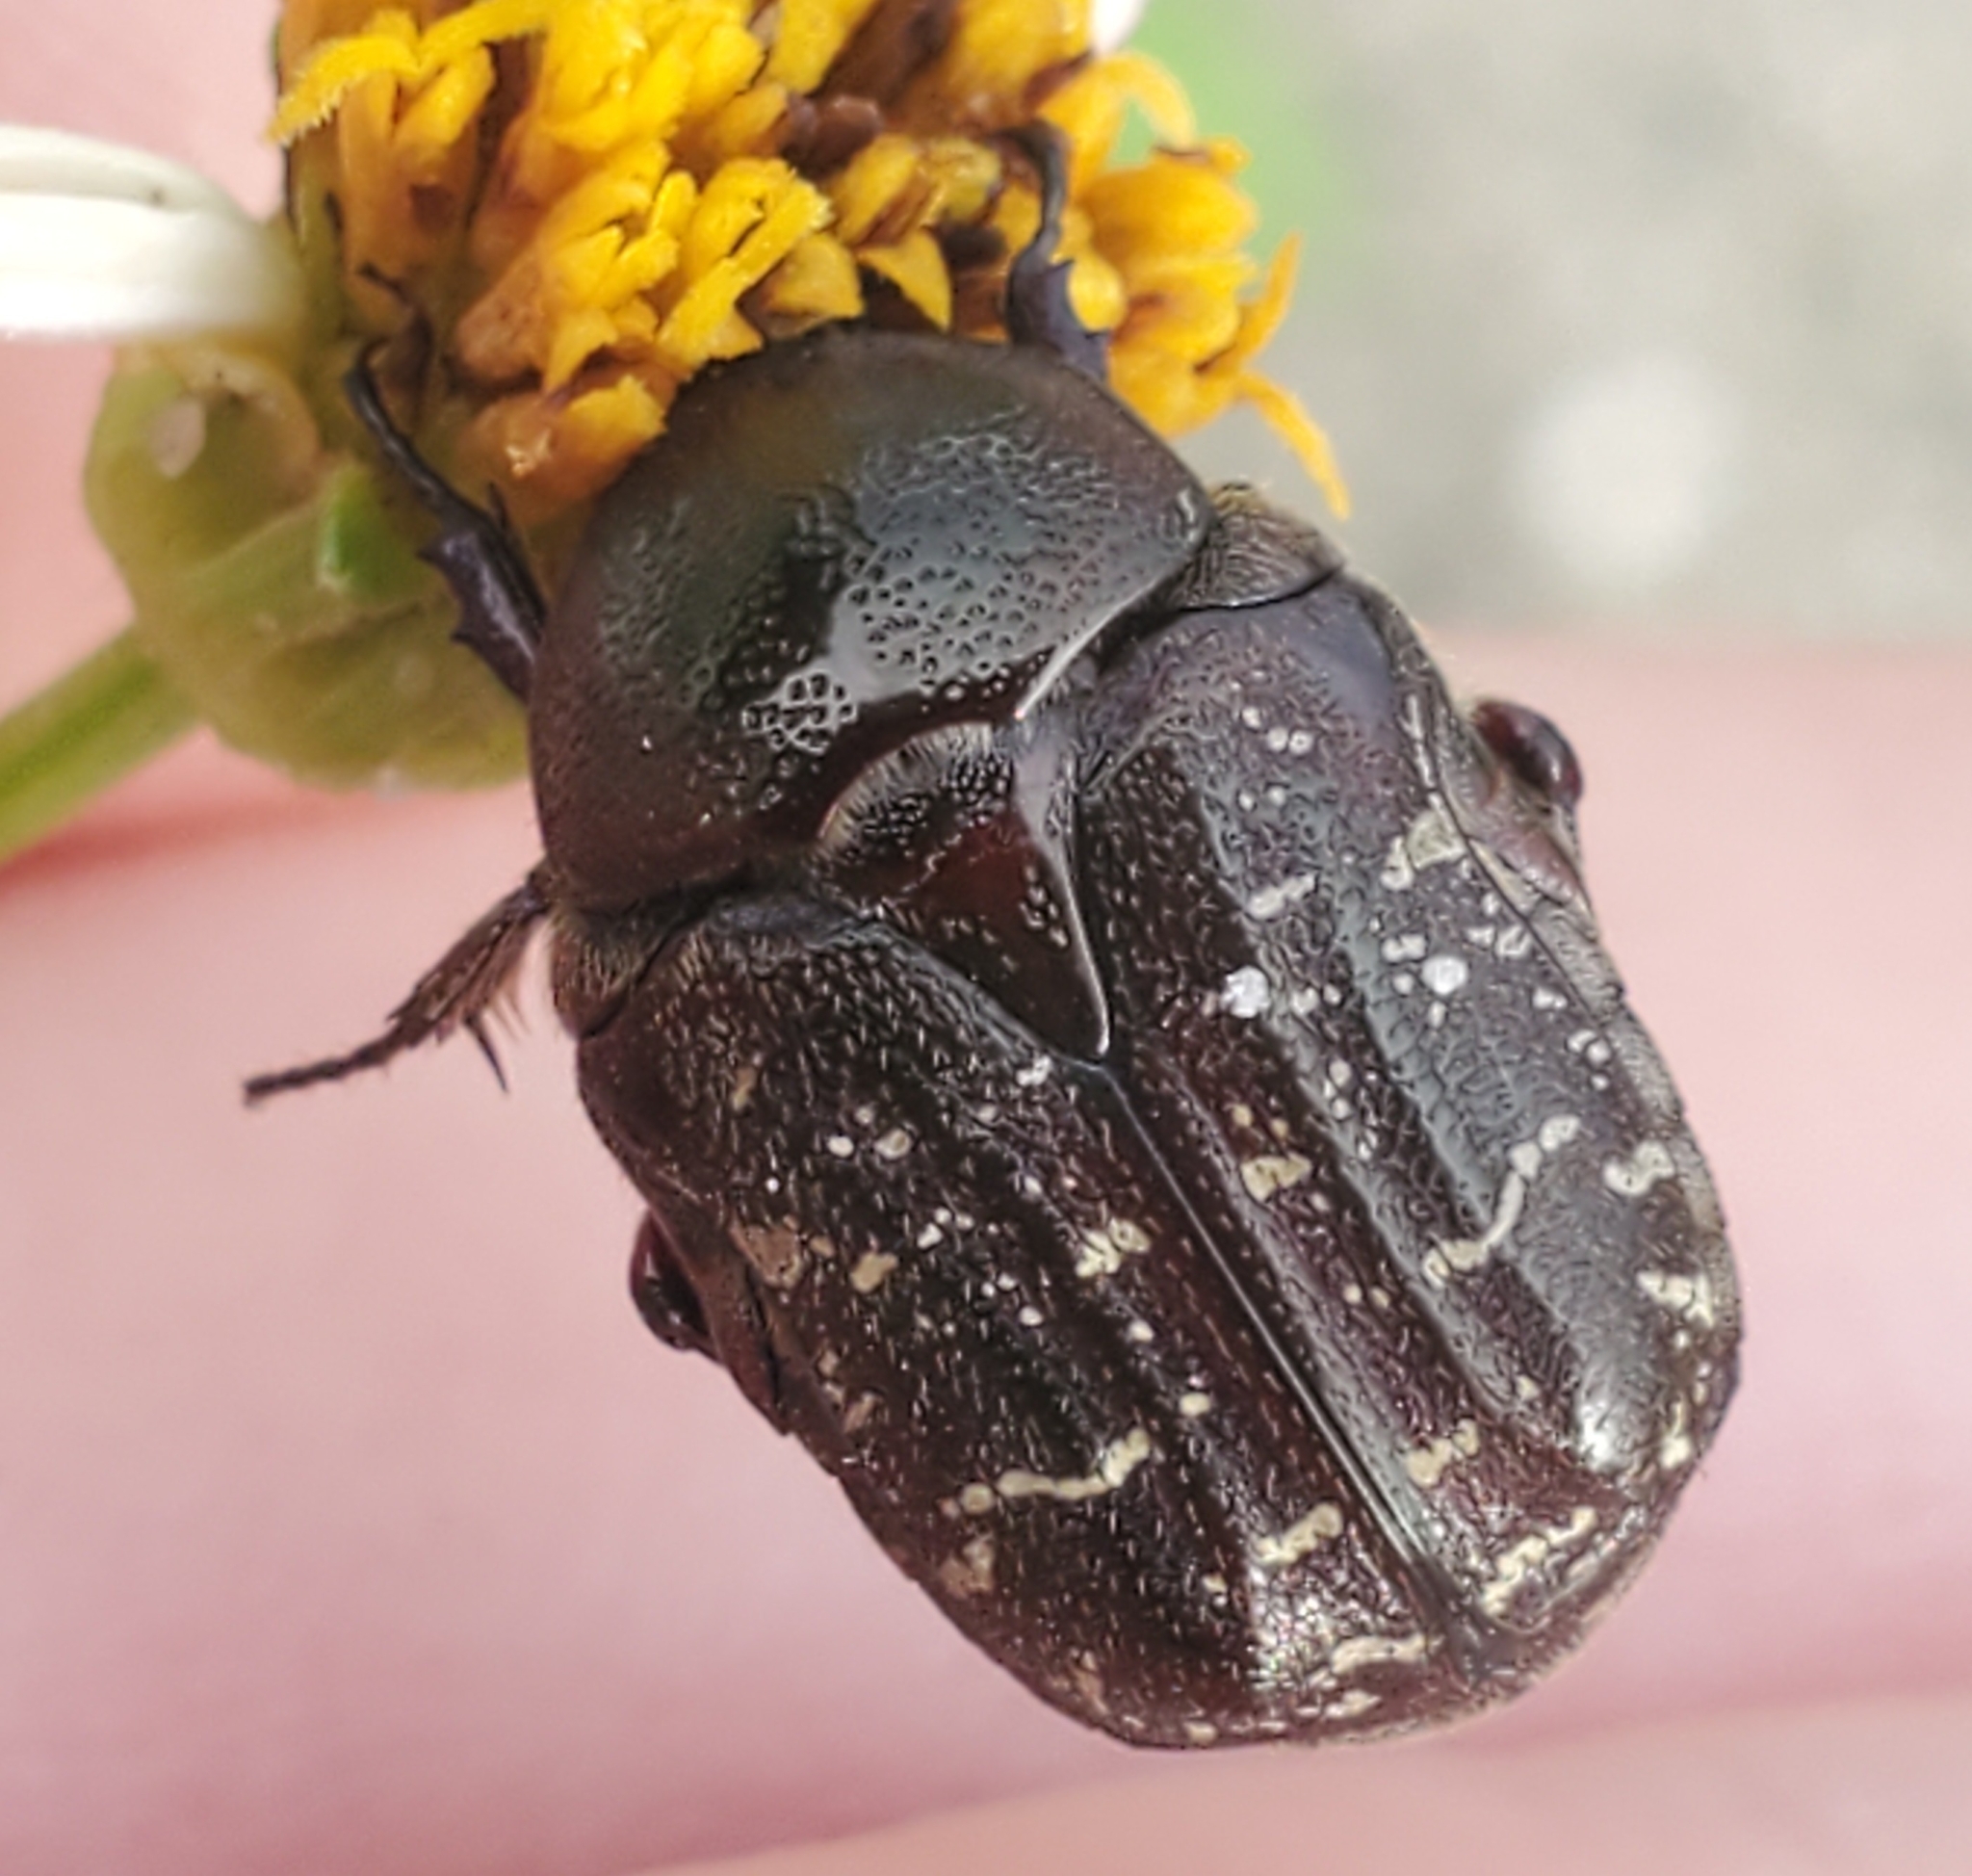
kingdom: Animalia
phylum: Arthropoda
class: Insecta
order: Coleoptera
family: Scarabaeidae
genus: Euphoria
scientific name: Euphoria sepulcralis
